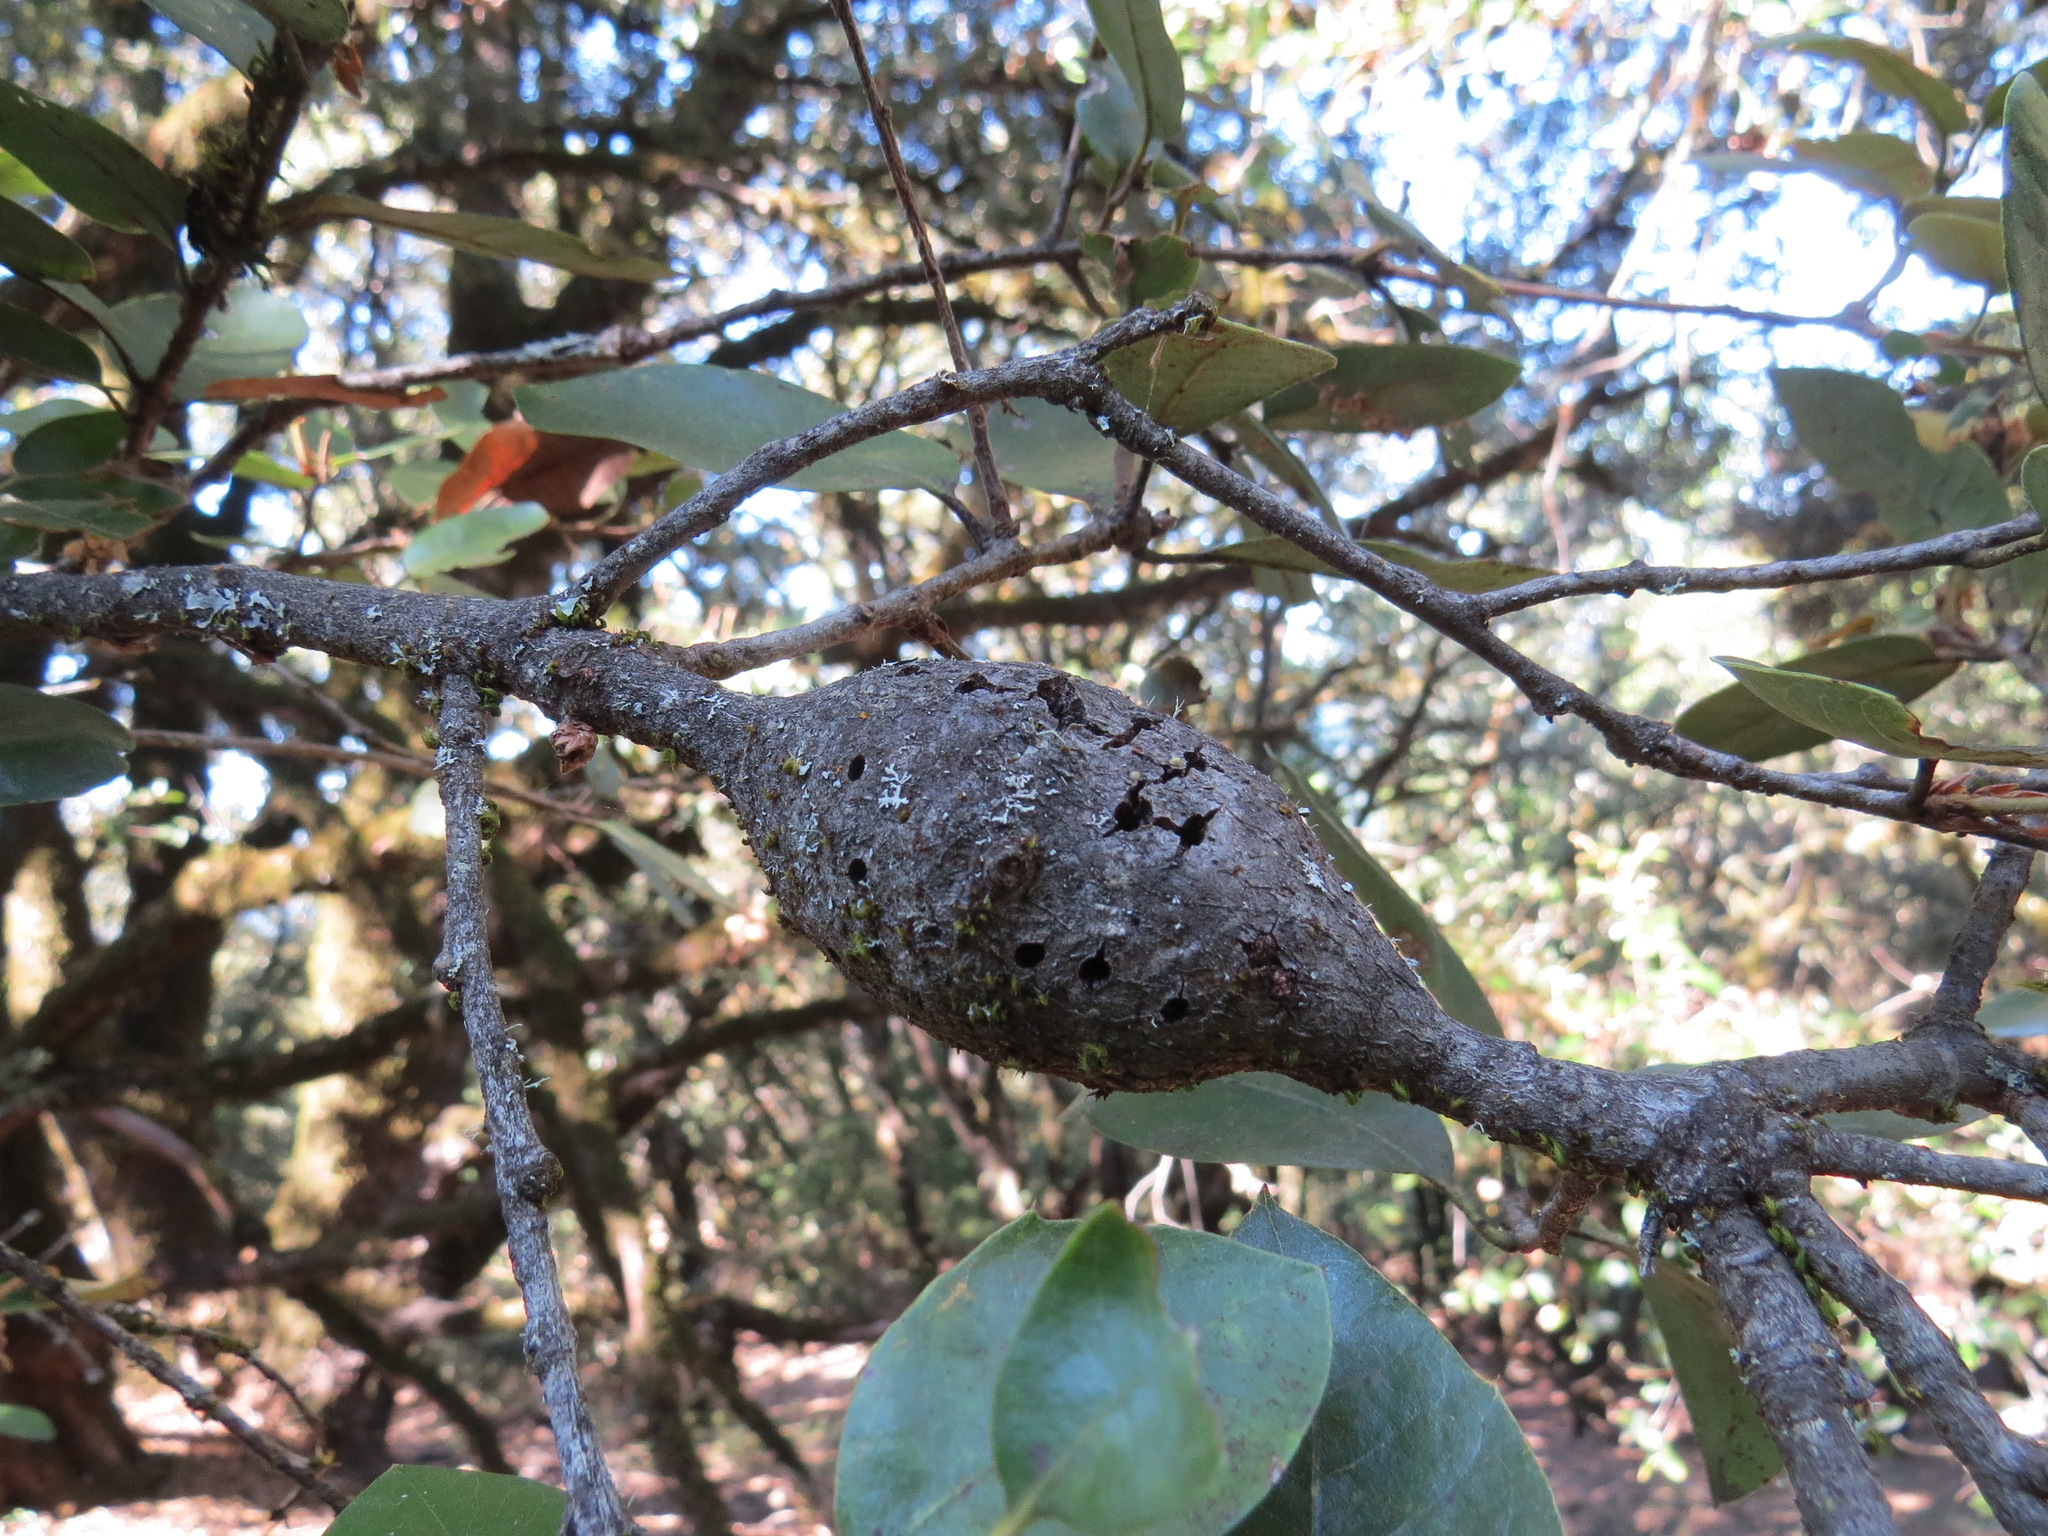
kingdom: Animalia
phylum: Arthropoda
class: Insecta
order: Hymenoptera
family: Cynipidae
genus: Disholcaspis
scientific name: Disholcaspis spectabilis
